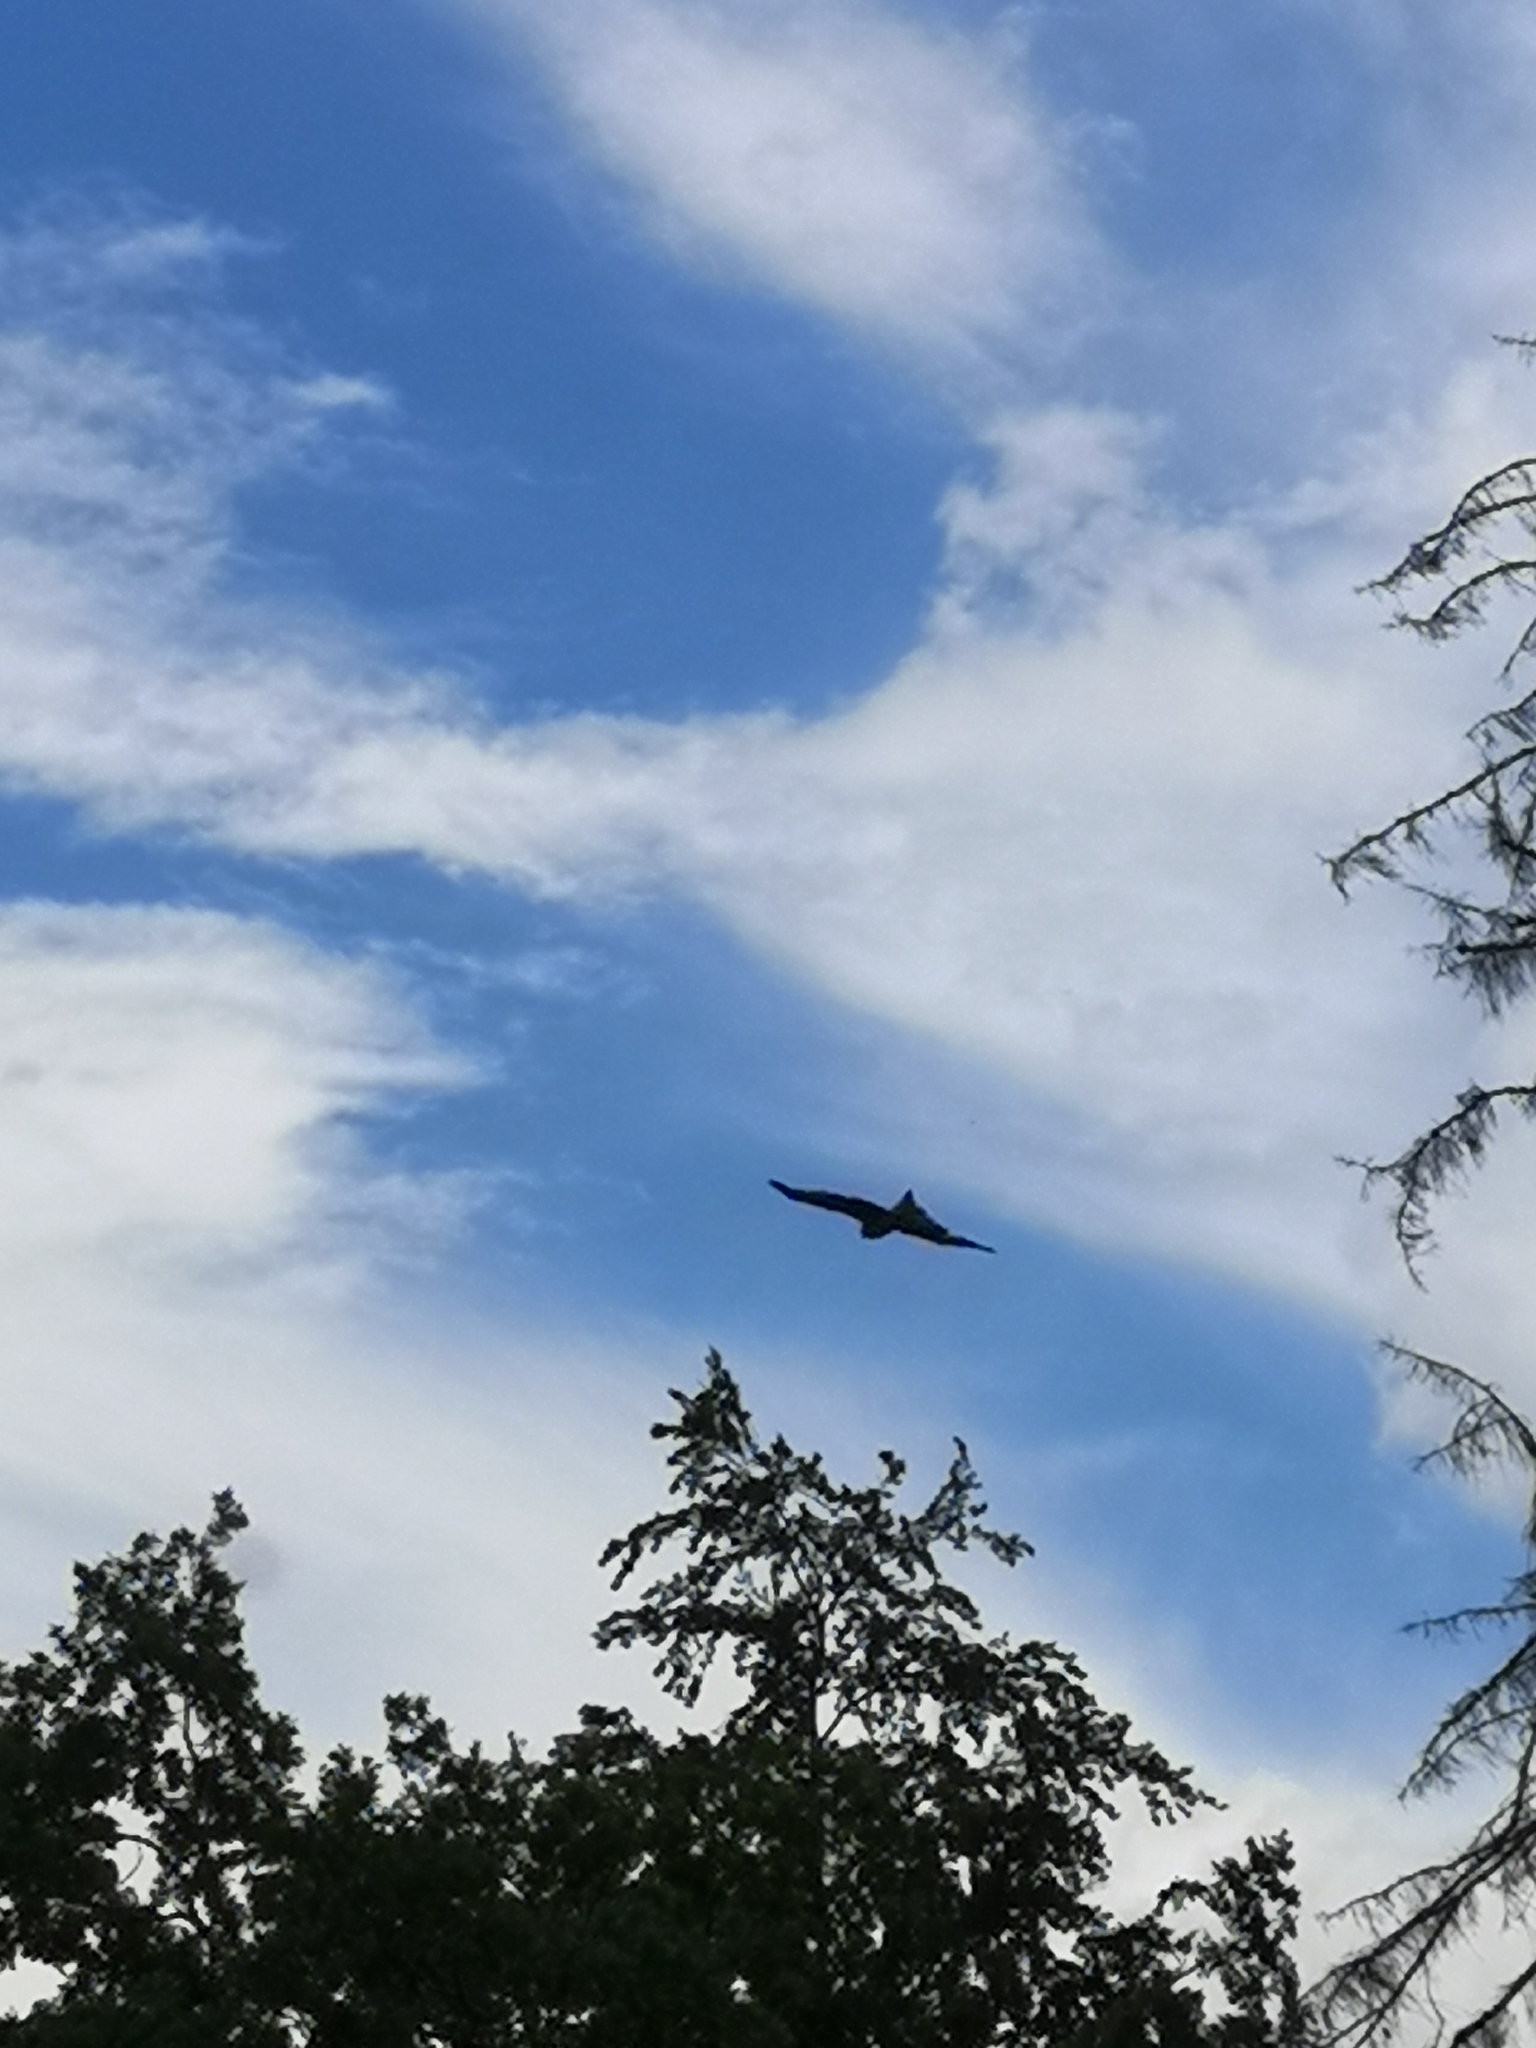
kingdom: Animalia
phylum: Chordata
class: Aves
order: Accipitriformes
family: Accipitridae
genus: Milvus
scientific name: Milvus milvus
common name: Red kite
